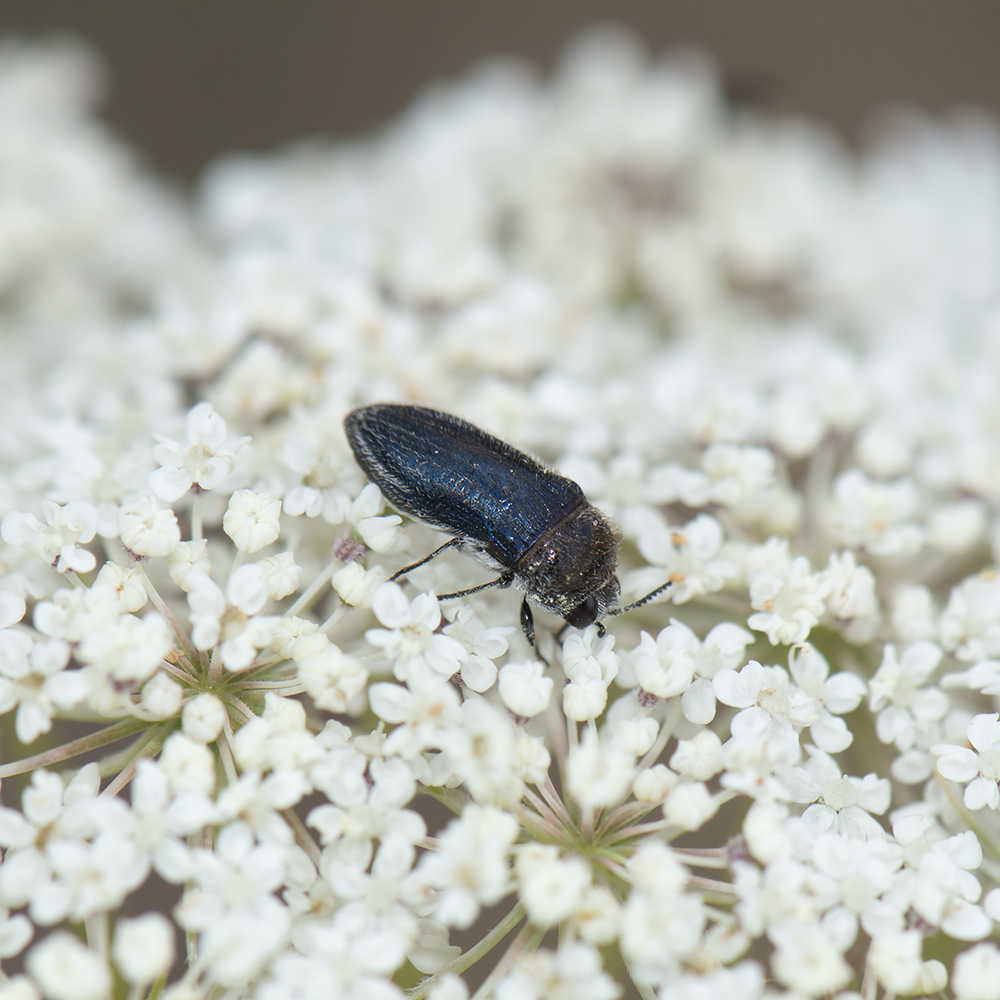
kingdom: Animalia
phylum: Arthropoda
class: Insecta
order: Coleoptera
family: Buprestidae
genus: Acmaeoderella
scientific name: Acmaeoderella villosula
